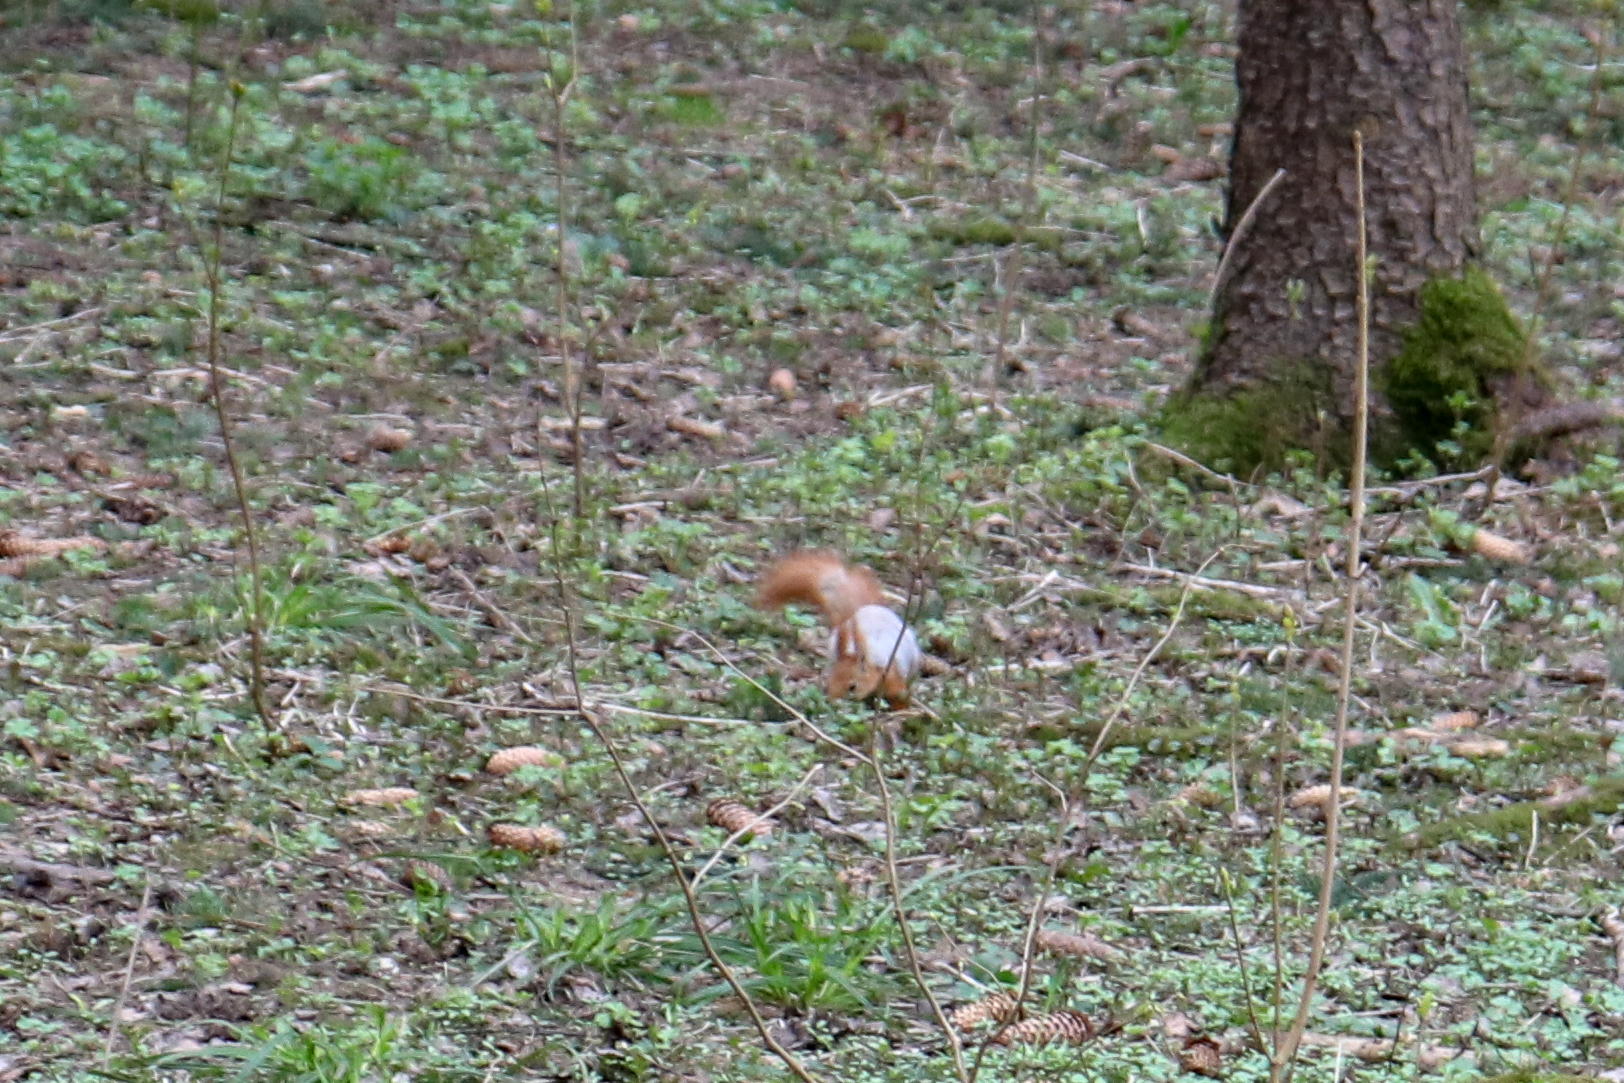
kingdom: Animalia
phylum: Chordata
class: Mammalia
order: Rodentia
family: Sciuridae
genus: Sciurus
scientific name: Sciurus vulgaris
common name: Eurasian red squirrel
